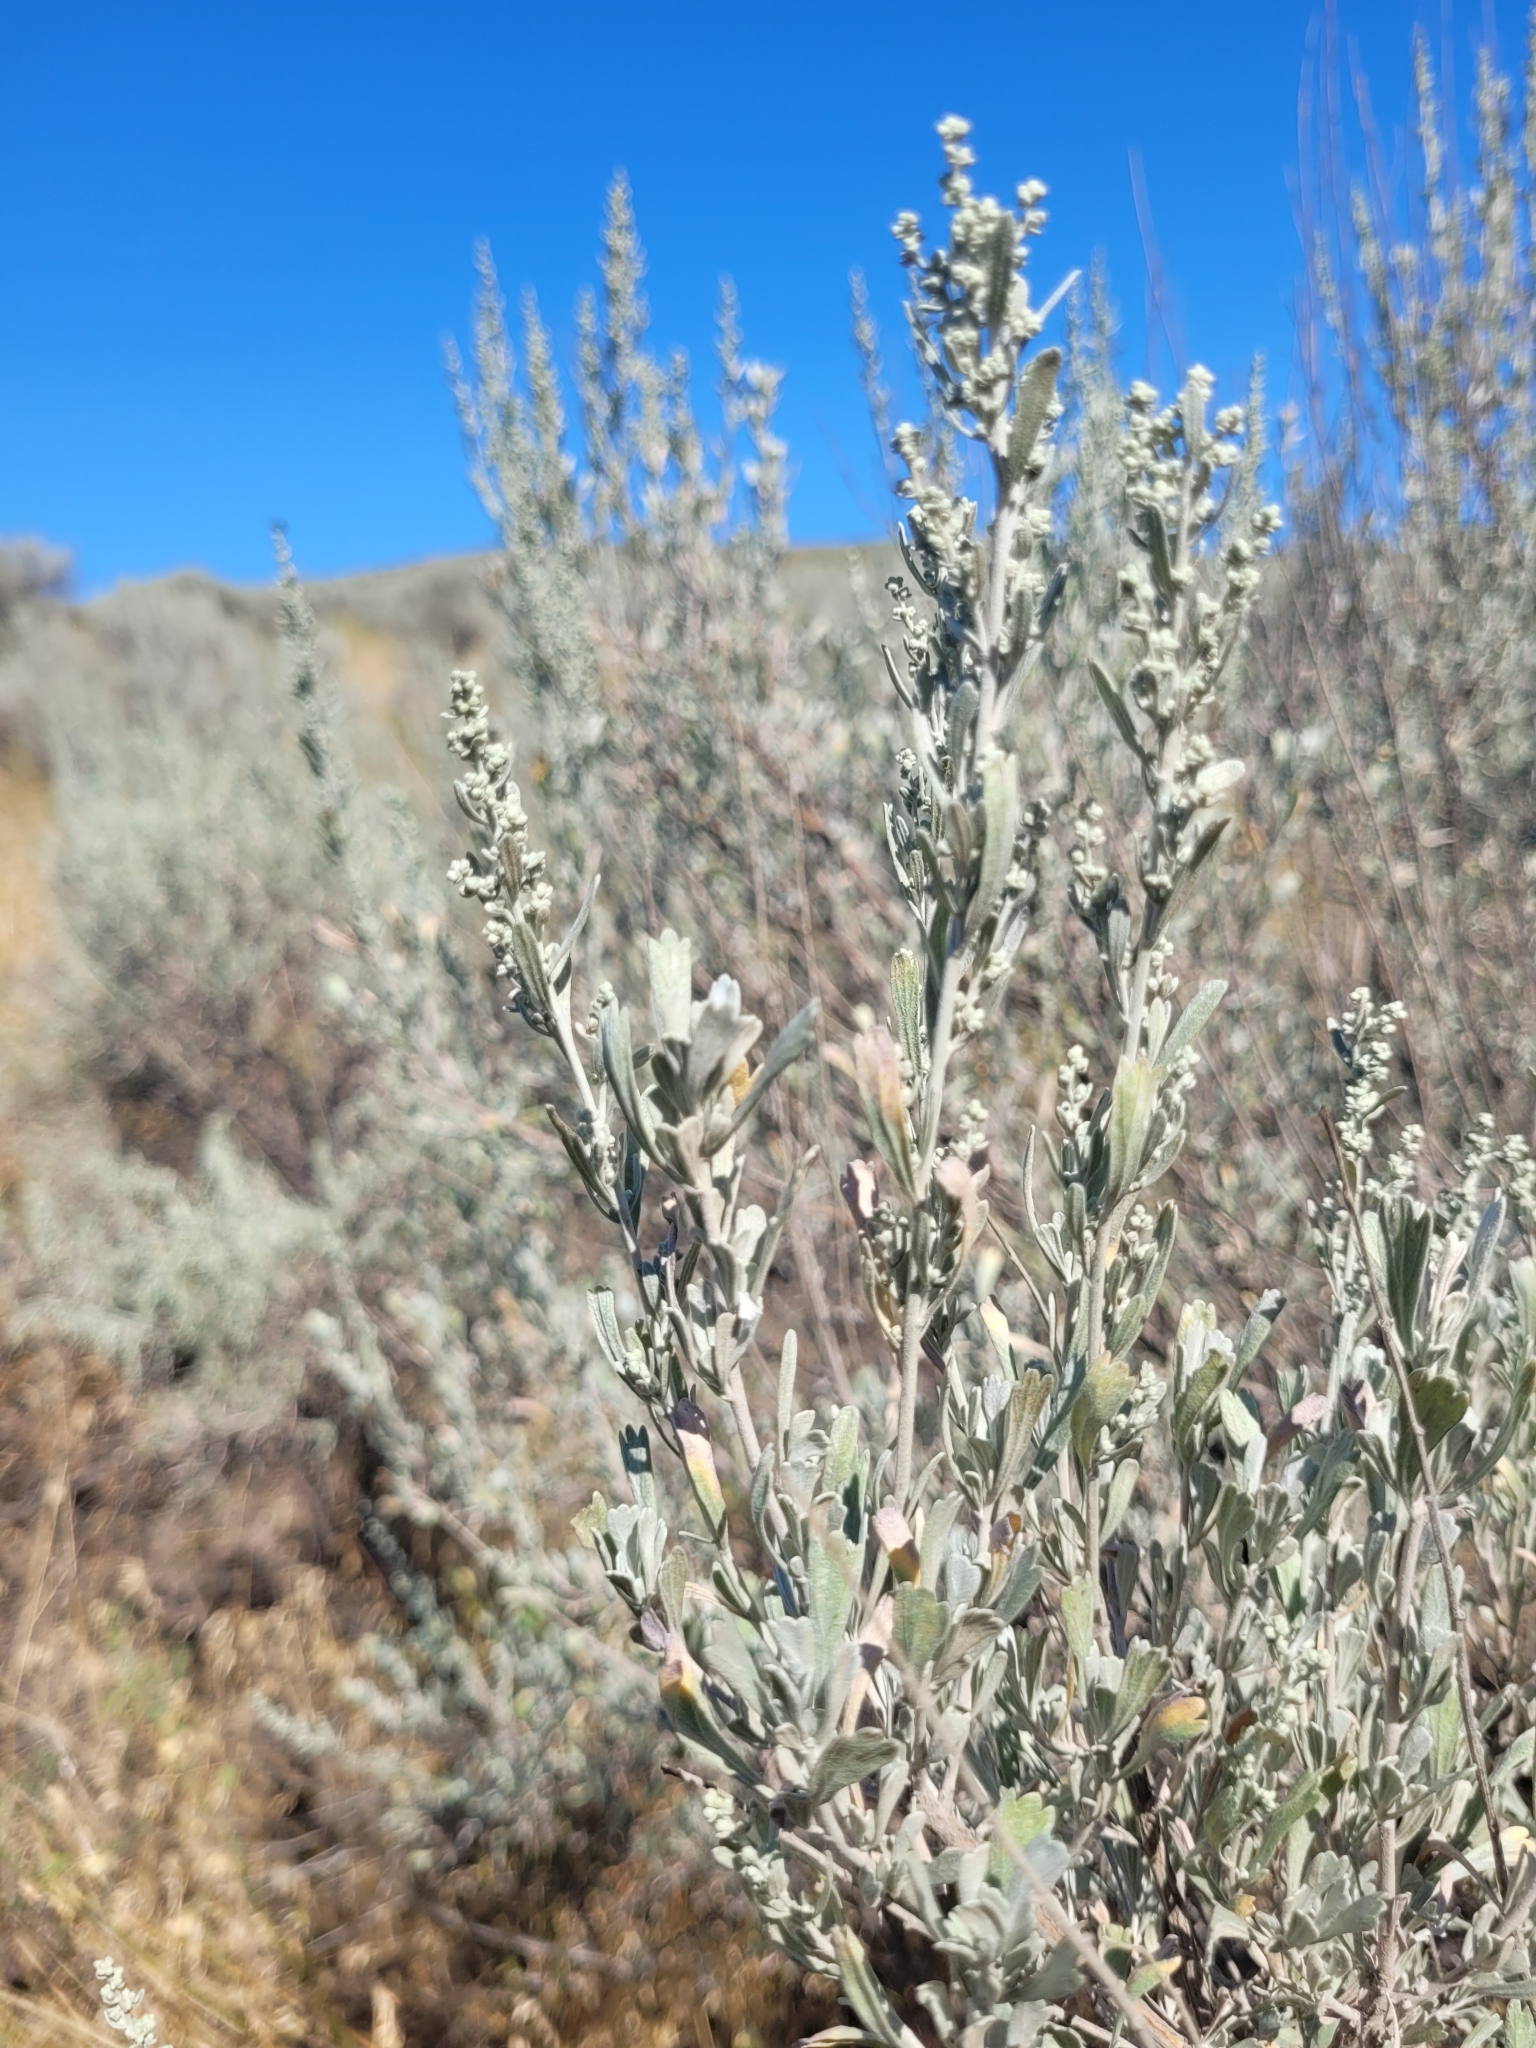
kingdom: Plantae
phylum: Tracheophyta
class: Magnoliopsida
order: Asterales
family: Asteraceae
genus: Artemisia
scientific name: Artemisia tridentata
